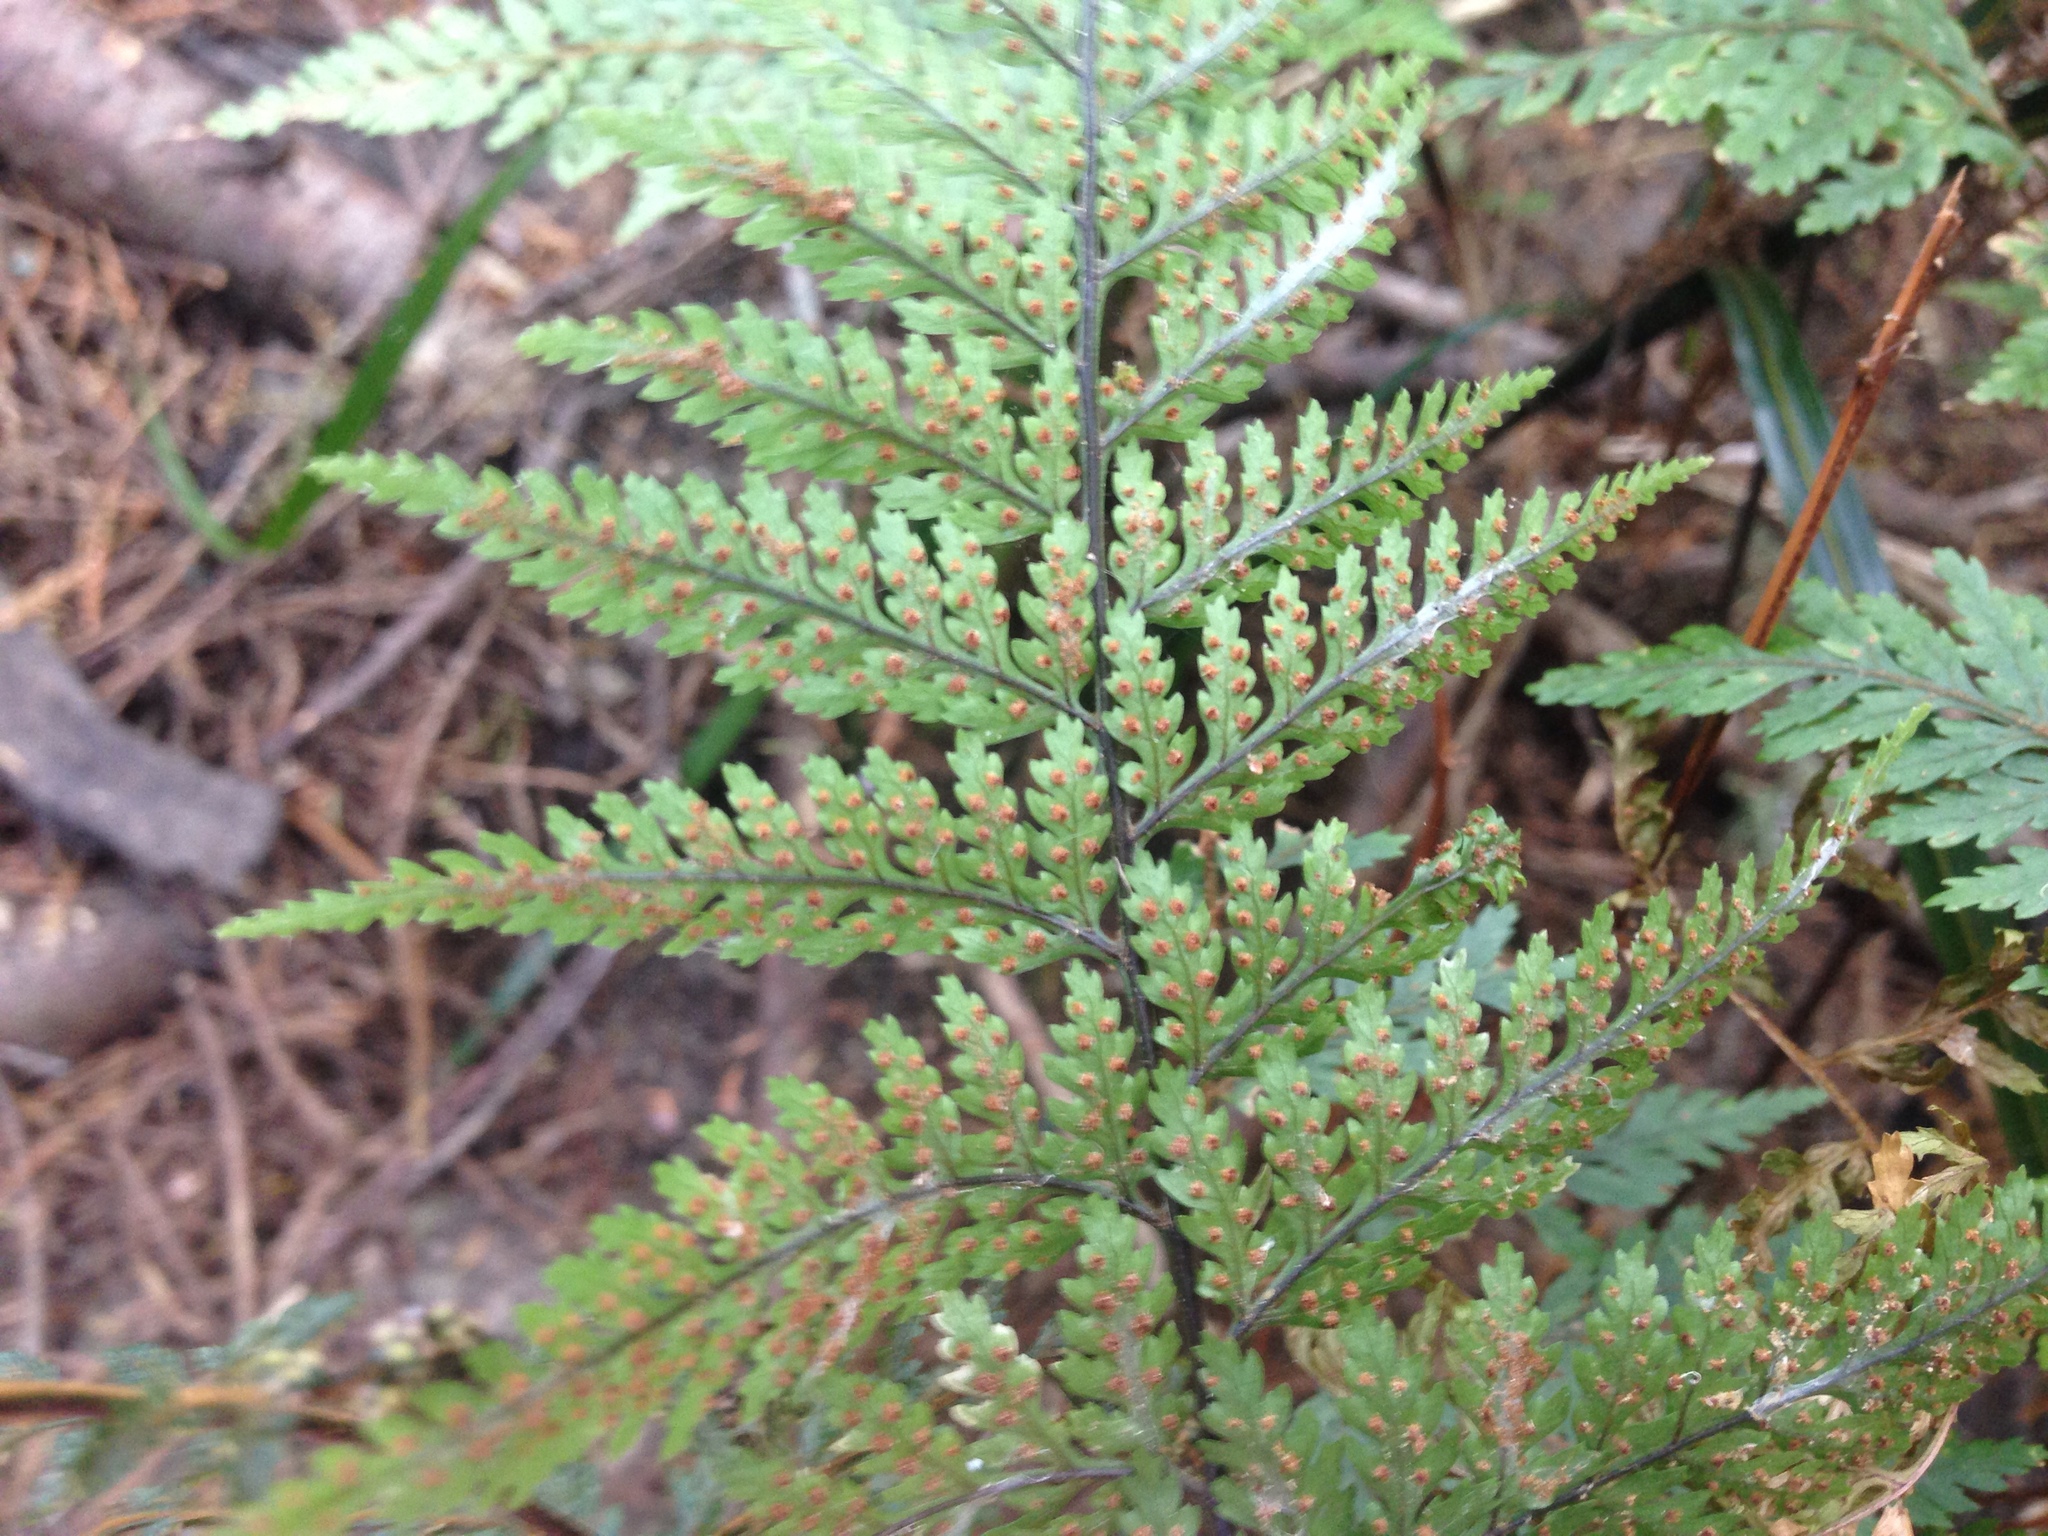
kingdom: Plantae
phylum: Tracheophyta
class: Polypodiopsida
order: Polypodiales
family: Dryopteridaceae
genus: Parapolystichum
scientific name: Parapolystichum glabellum
